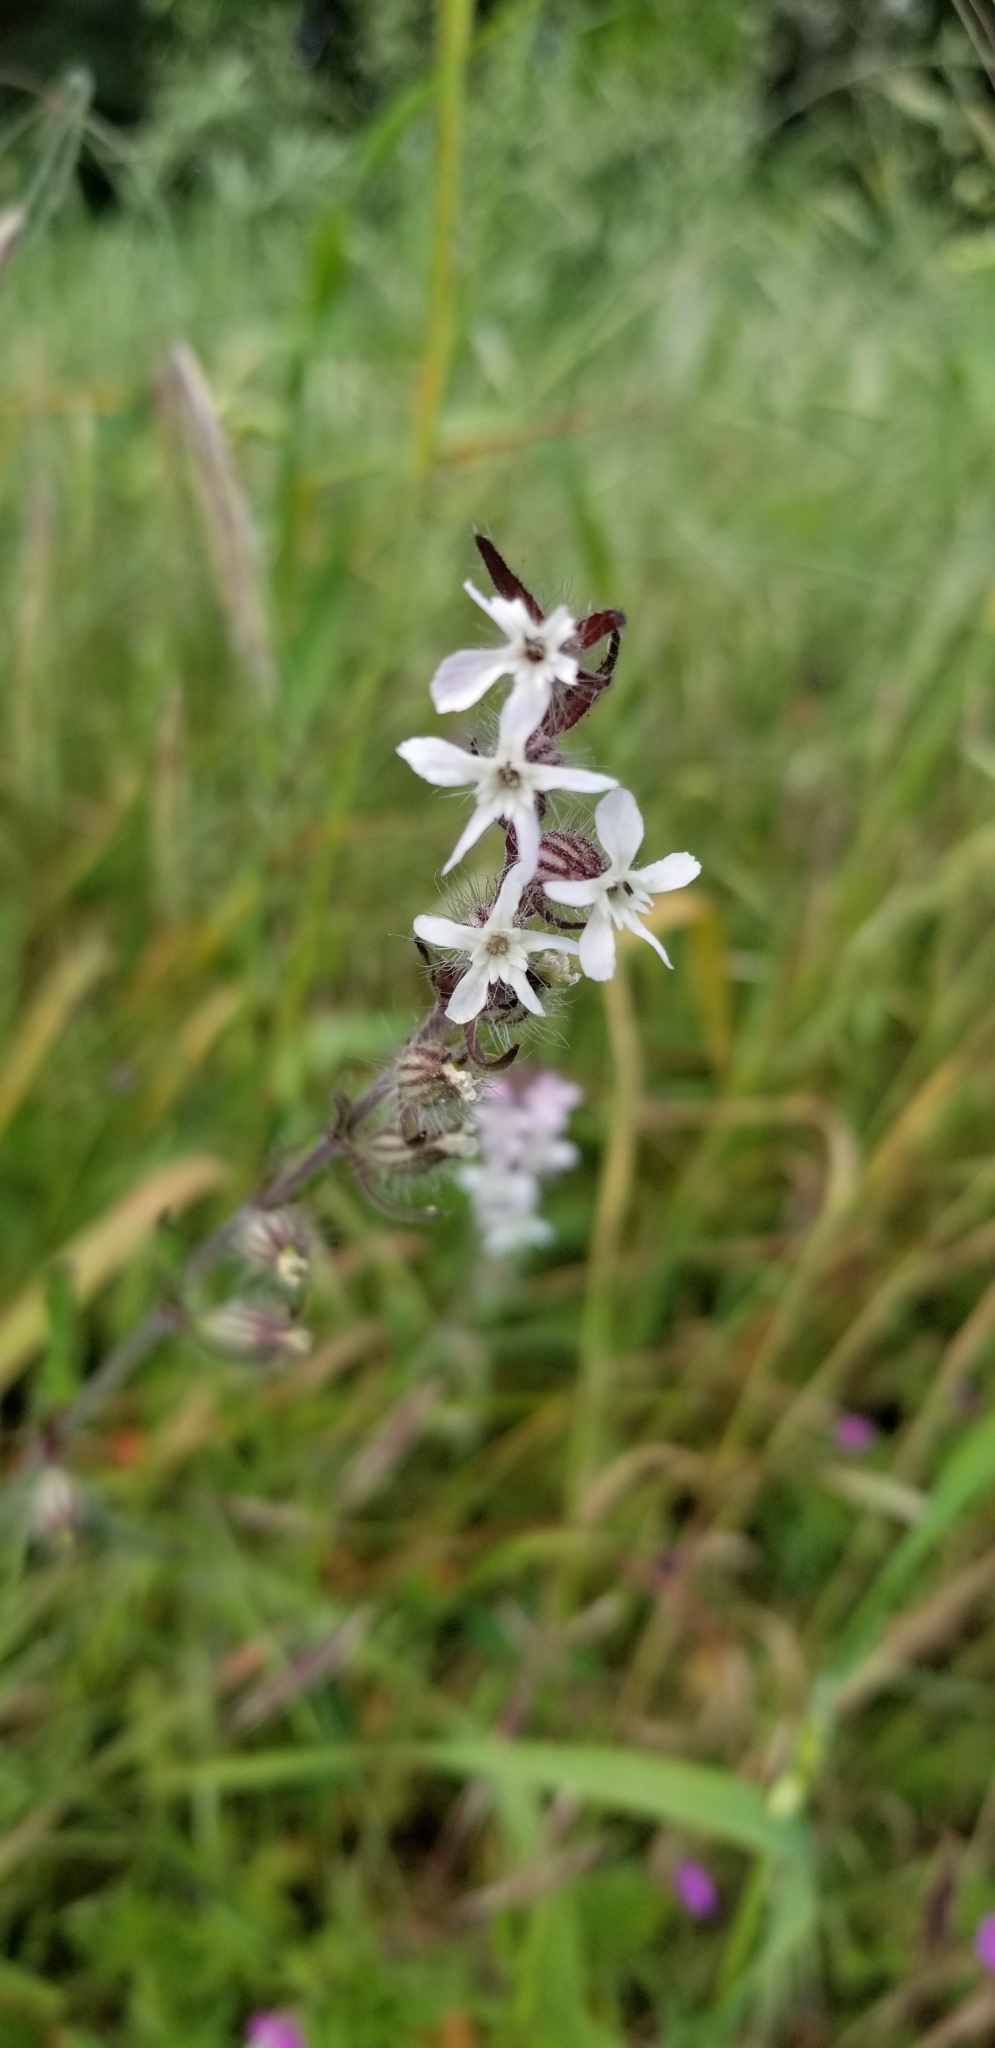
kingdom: Plantae
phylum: Tracheophyta
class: Magnoliopsida
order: Caryophyllales
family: Caryophyllaceae
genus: Silene
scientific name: Silene gallica
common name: Small-flowered catchfly
